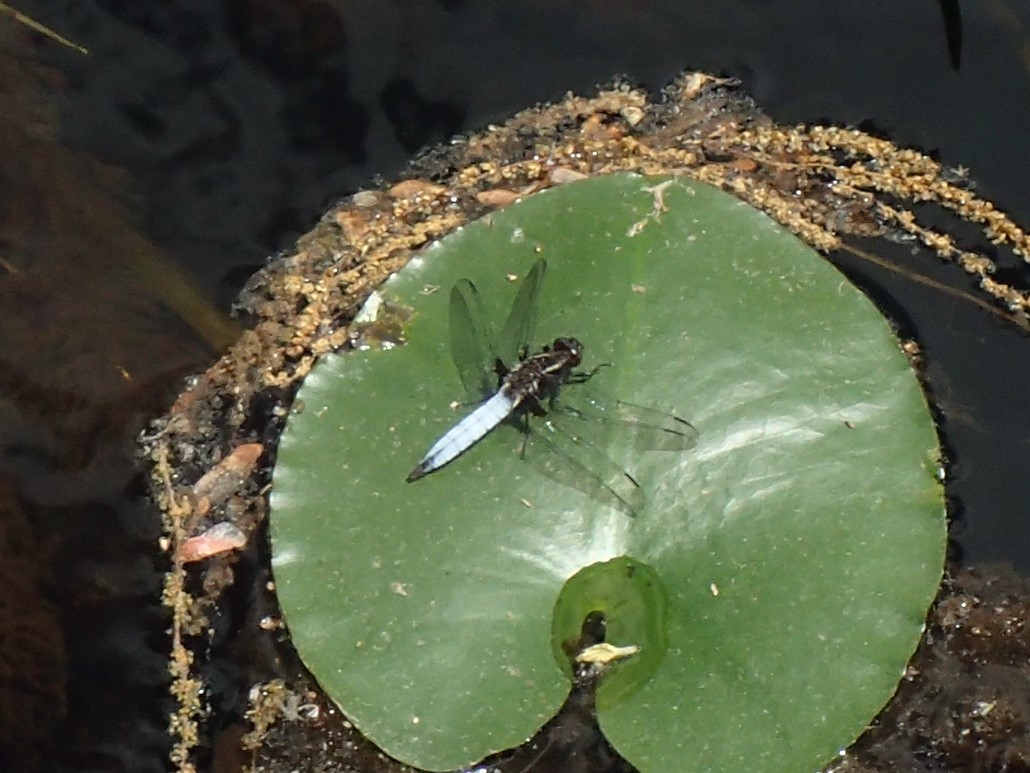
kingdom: Animalia
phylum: Arthropoda
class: Insecta
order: Odonata
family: Libellulidae
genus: Ladona
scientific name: Ladona exusta
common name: Libellule embrasée
